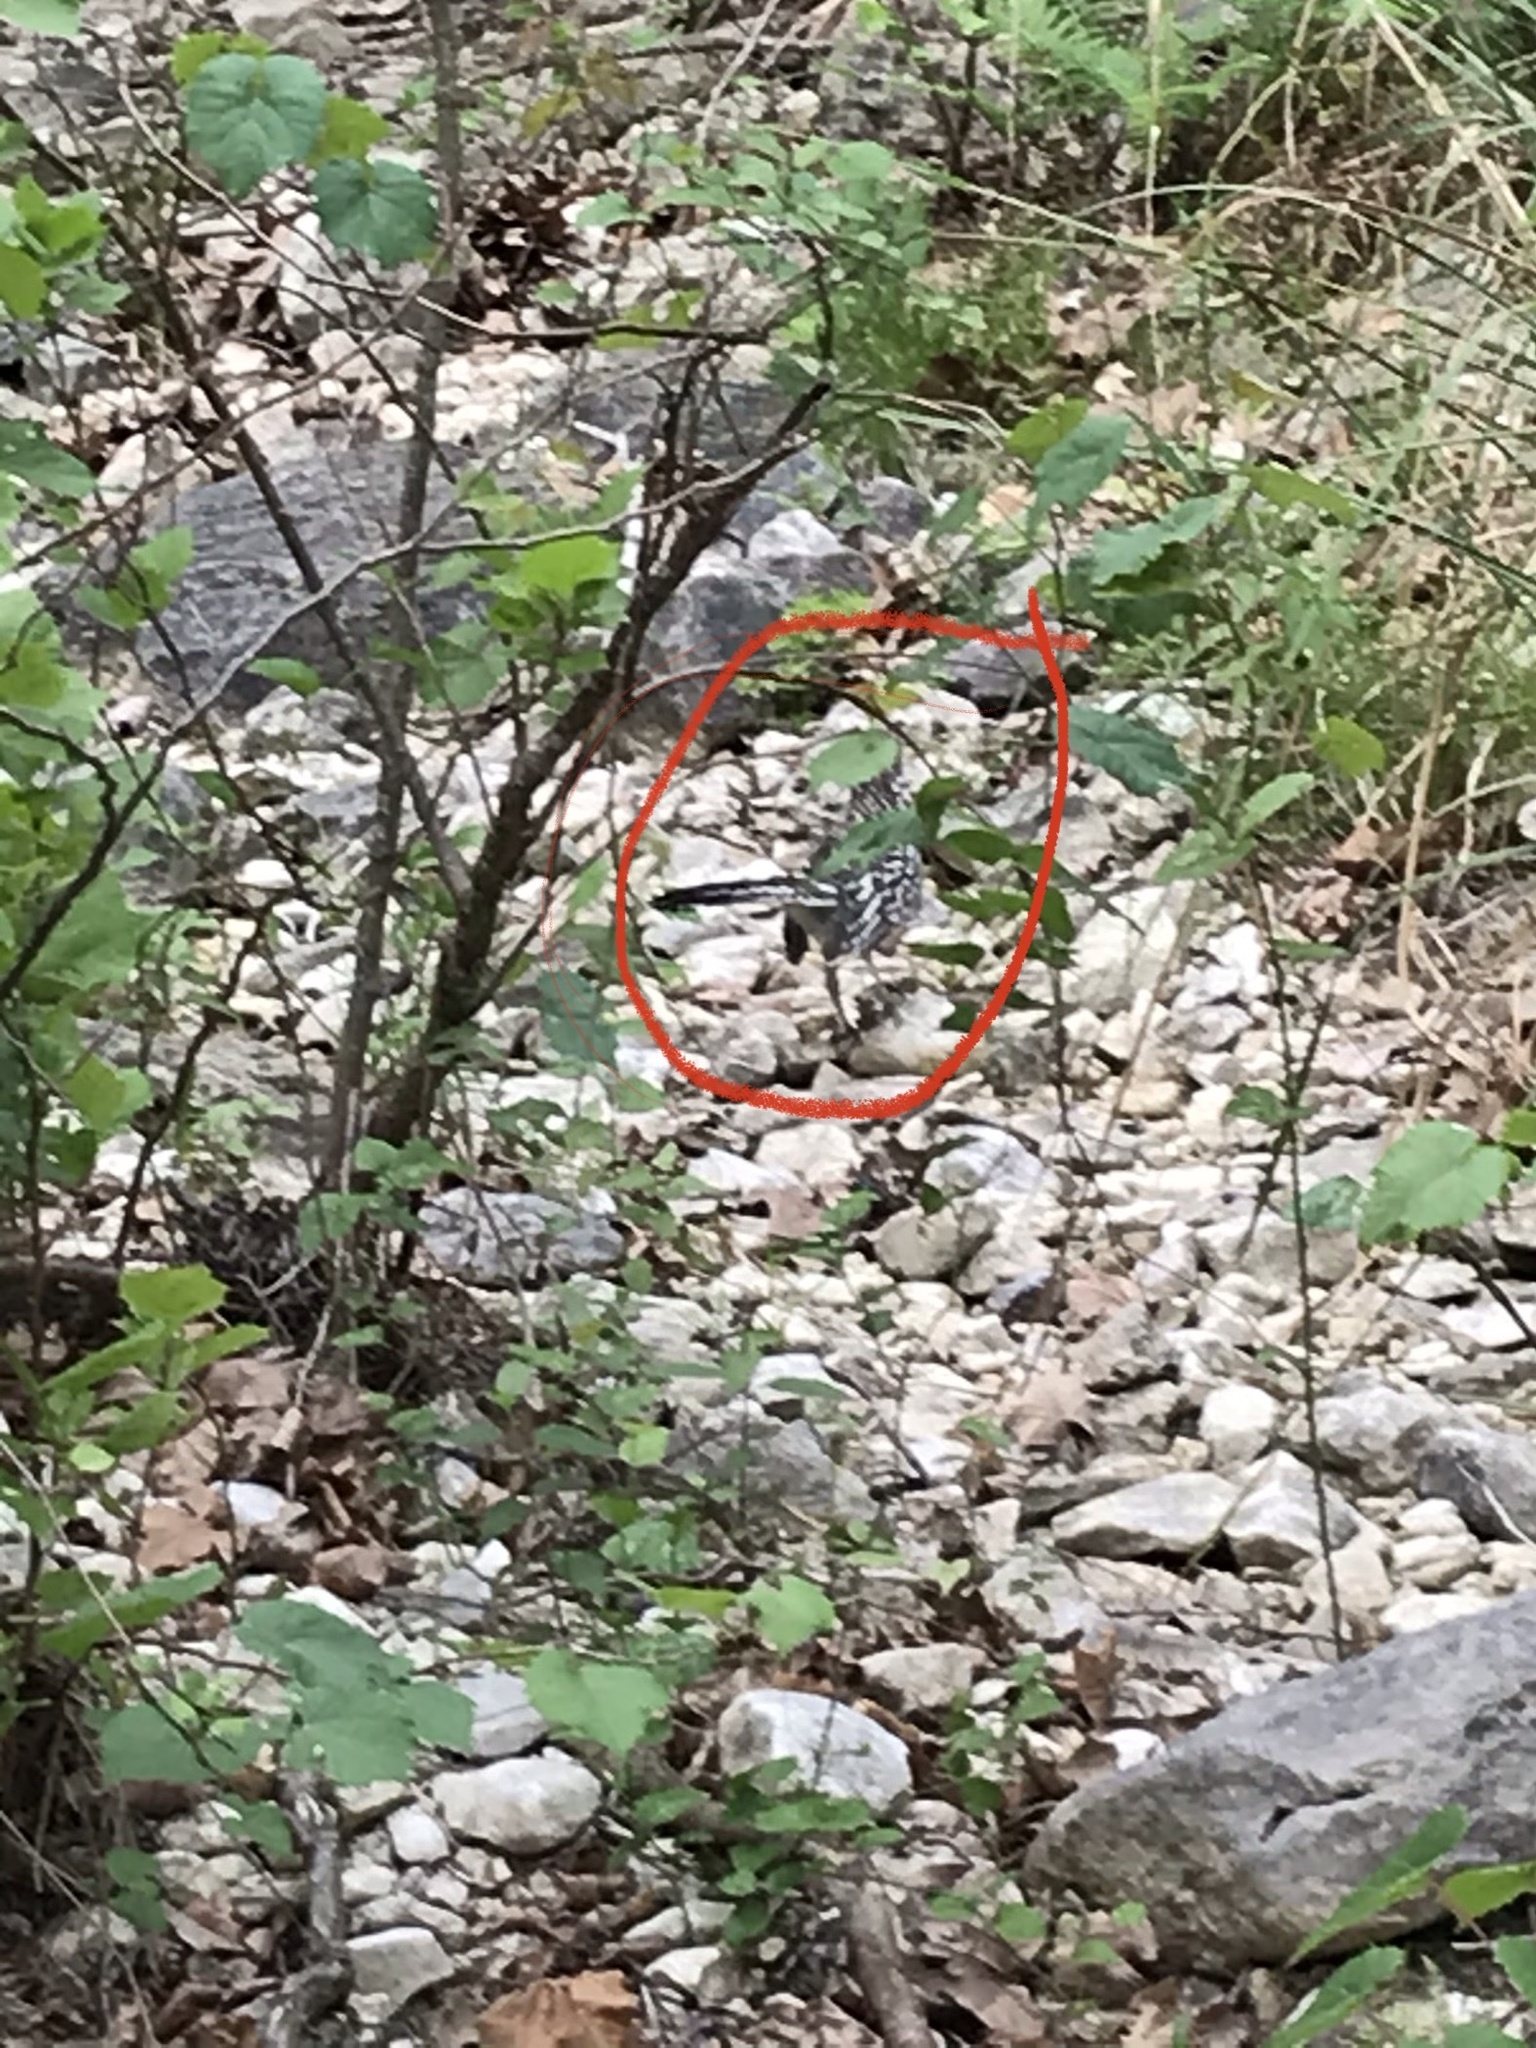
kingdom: Animalia
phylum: Chordata
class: Aves
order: Cuculiformes
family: Cuculidae
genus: Geococcyx
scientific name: Geococcyx californianus
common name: Greater roadrunner
